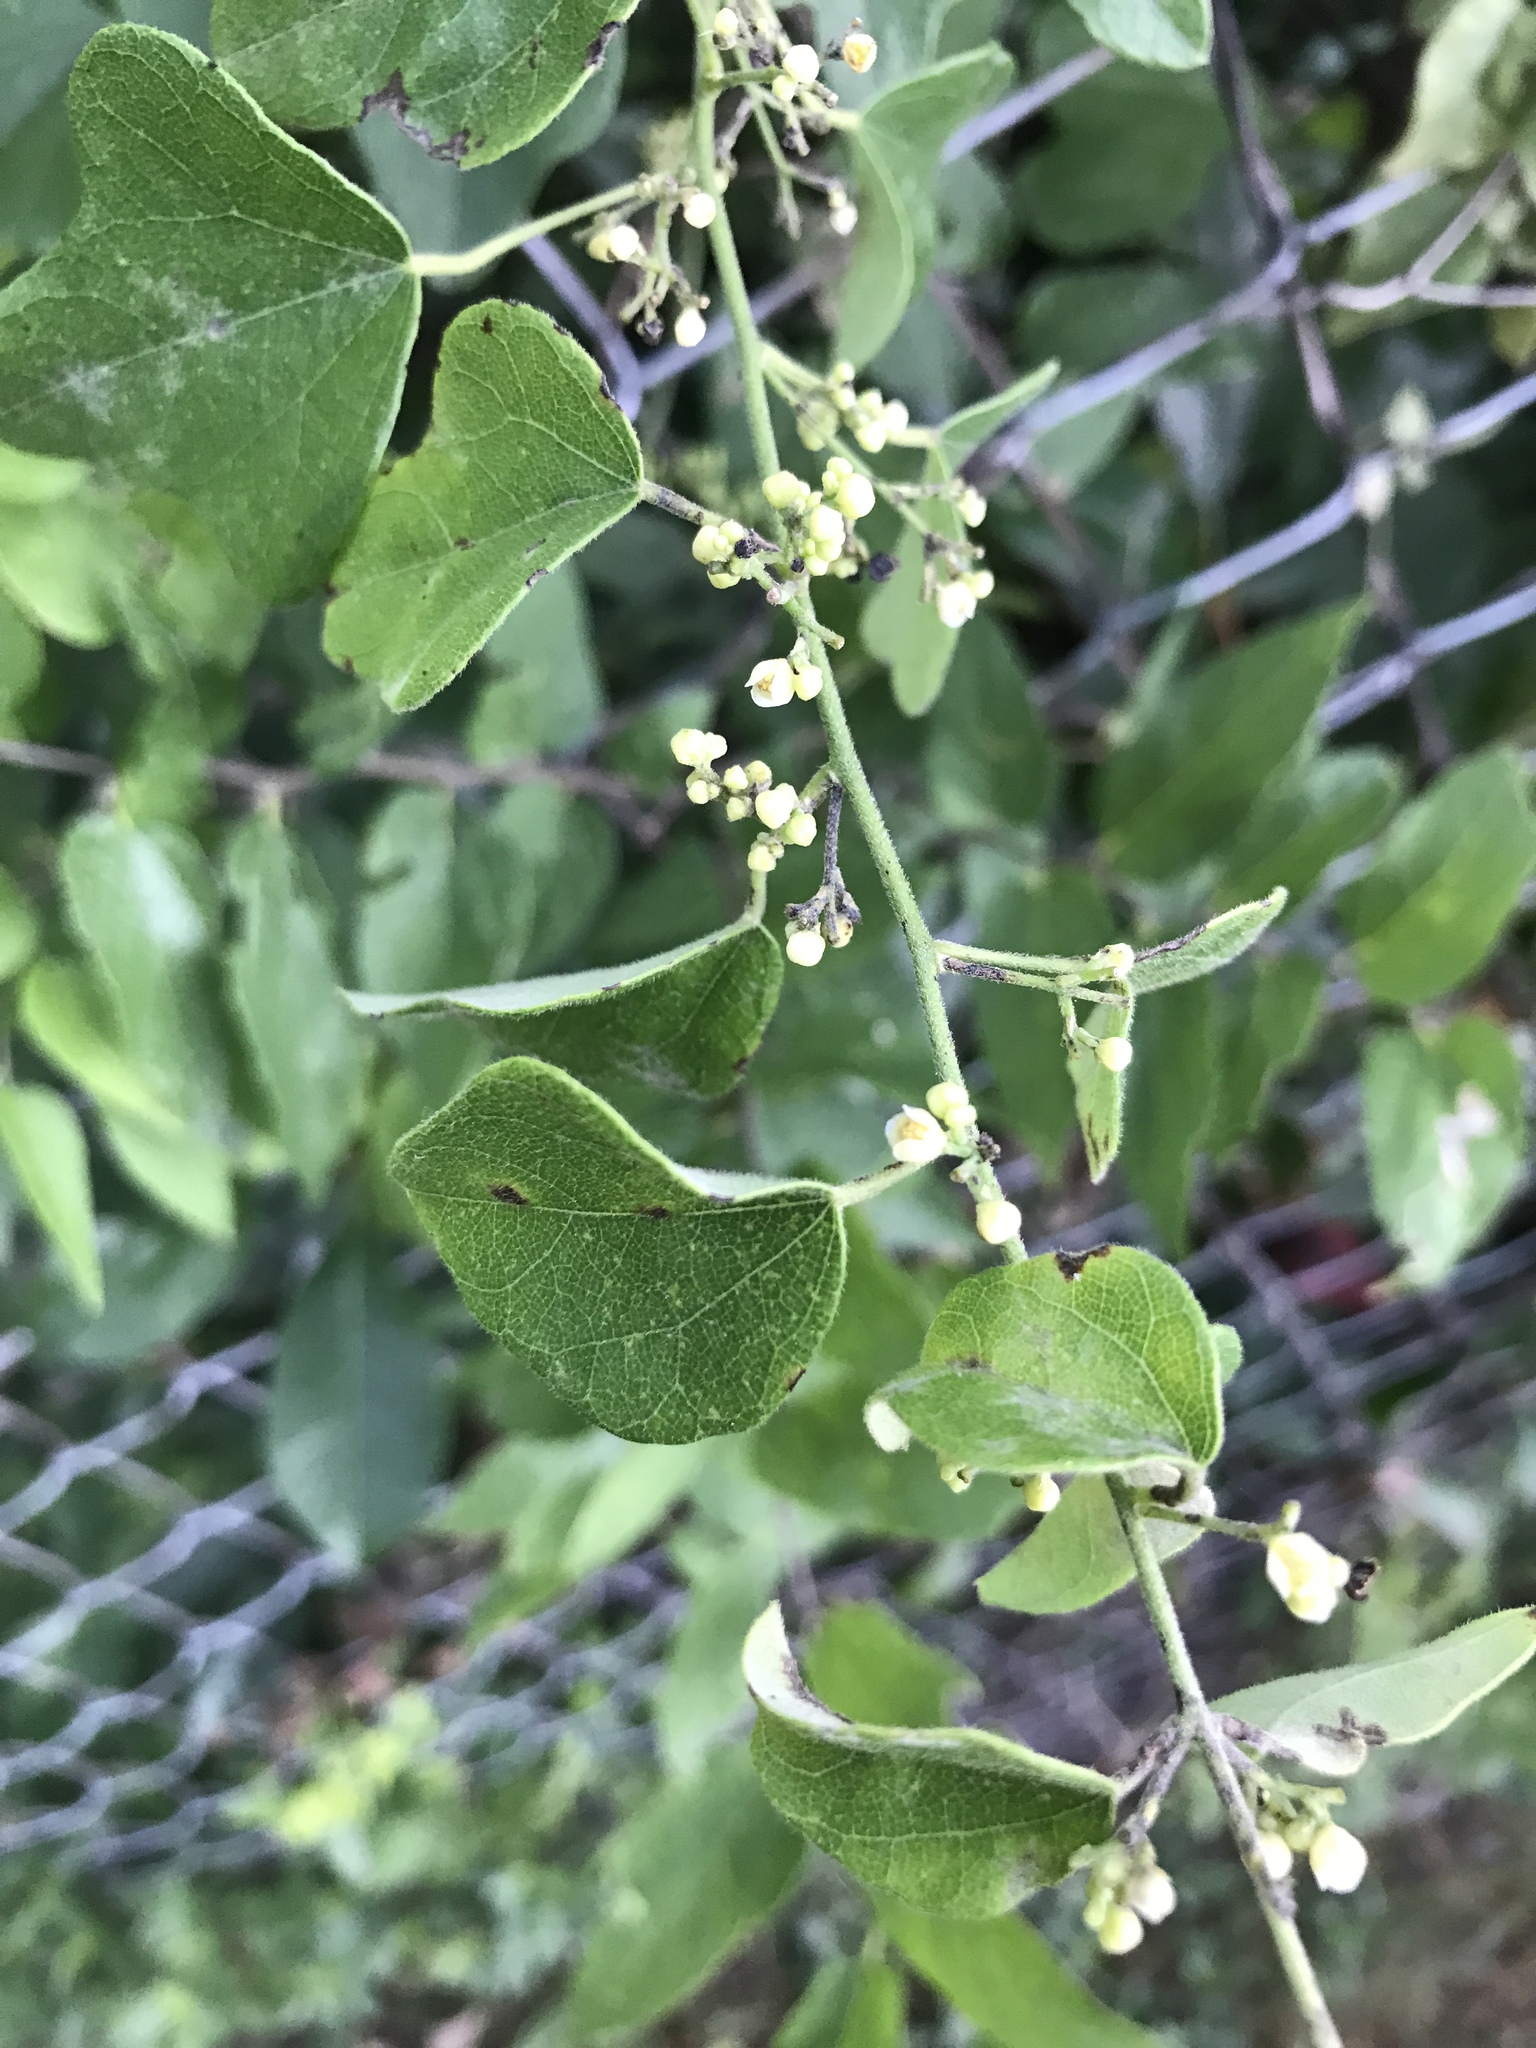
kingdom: Plantae
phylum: Tracheophyta
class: Magnoliopsida
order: Ranunculales
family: Menispermaceae
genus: Cocculus
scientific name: Cocculus carolinus
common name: Carolina moonseed
